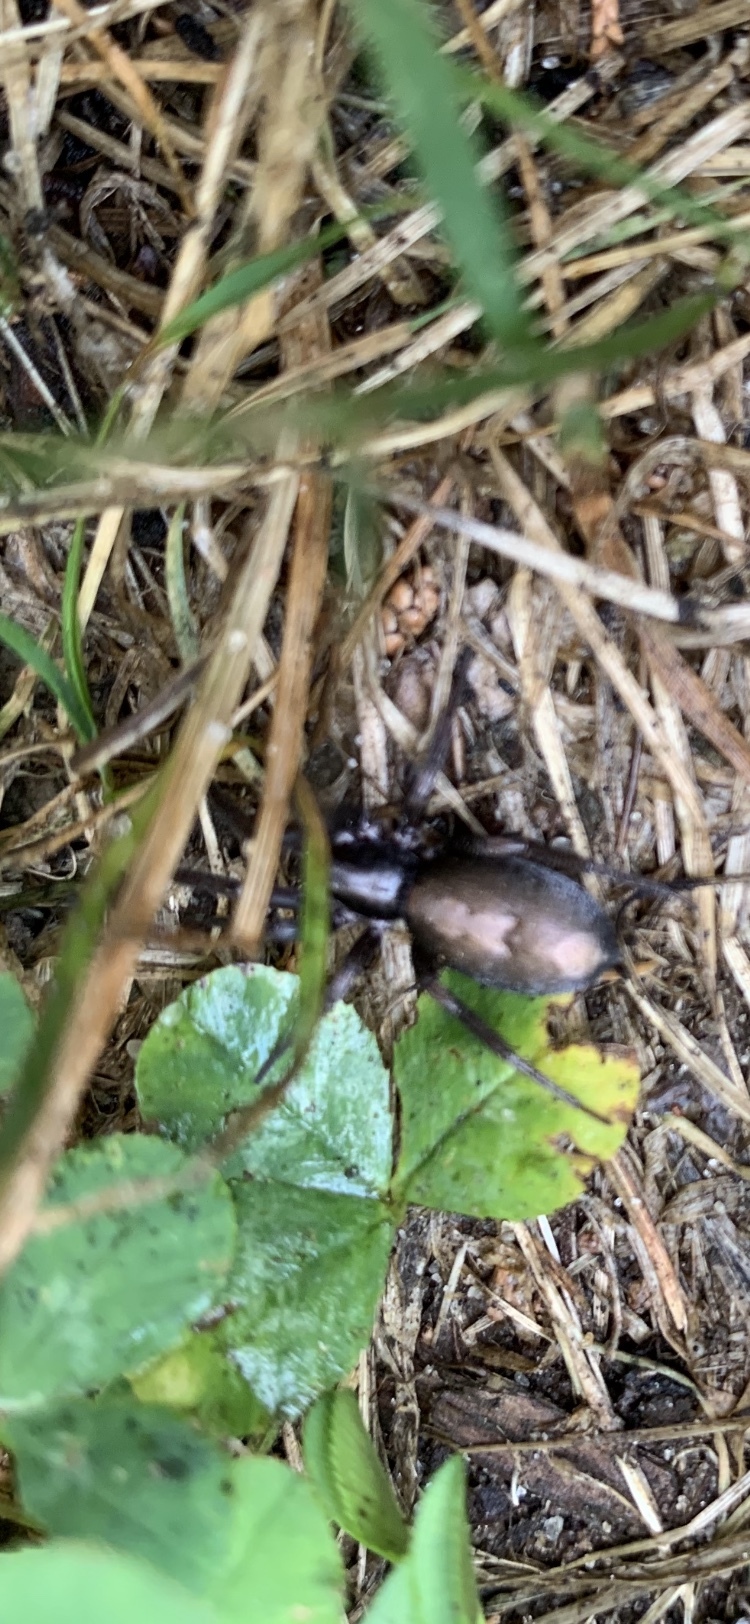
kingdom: Animalia
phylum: Arthropoda
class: Arachnida
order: Araneae
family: Gnaphosidae
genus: Herpyllus
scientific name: Herpyllus ecclesiasticus
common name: Eastern parson spider
